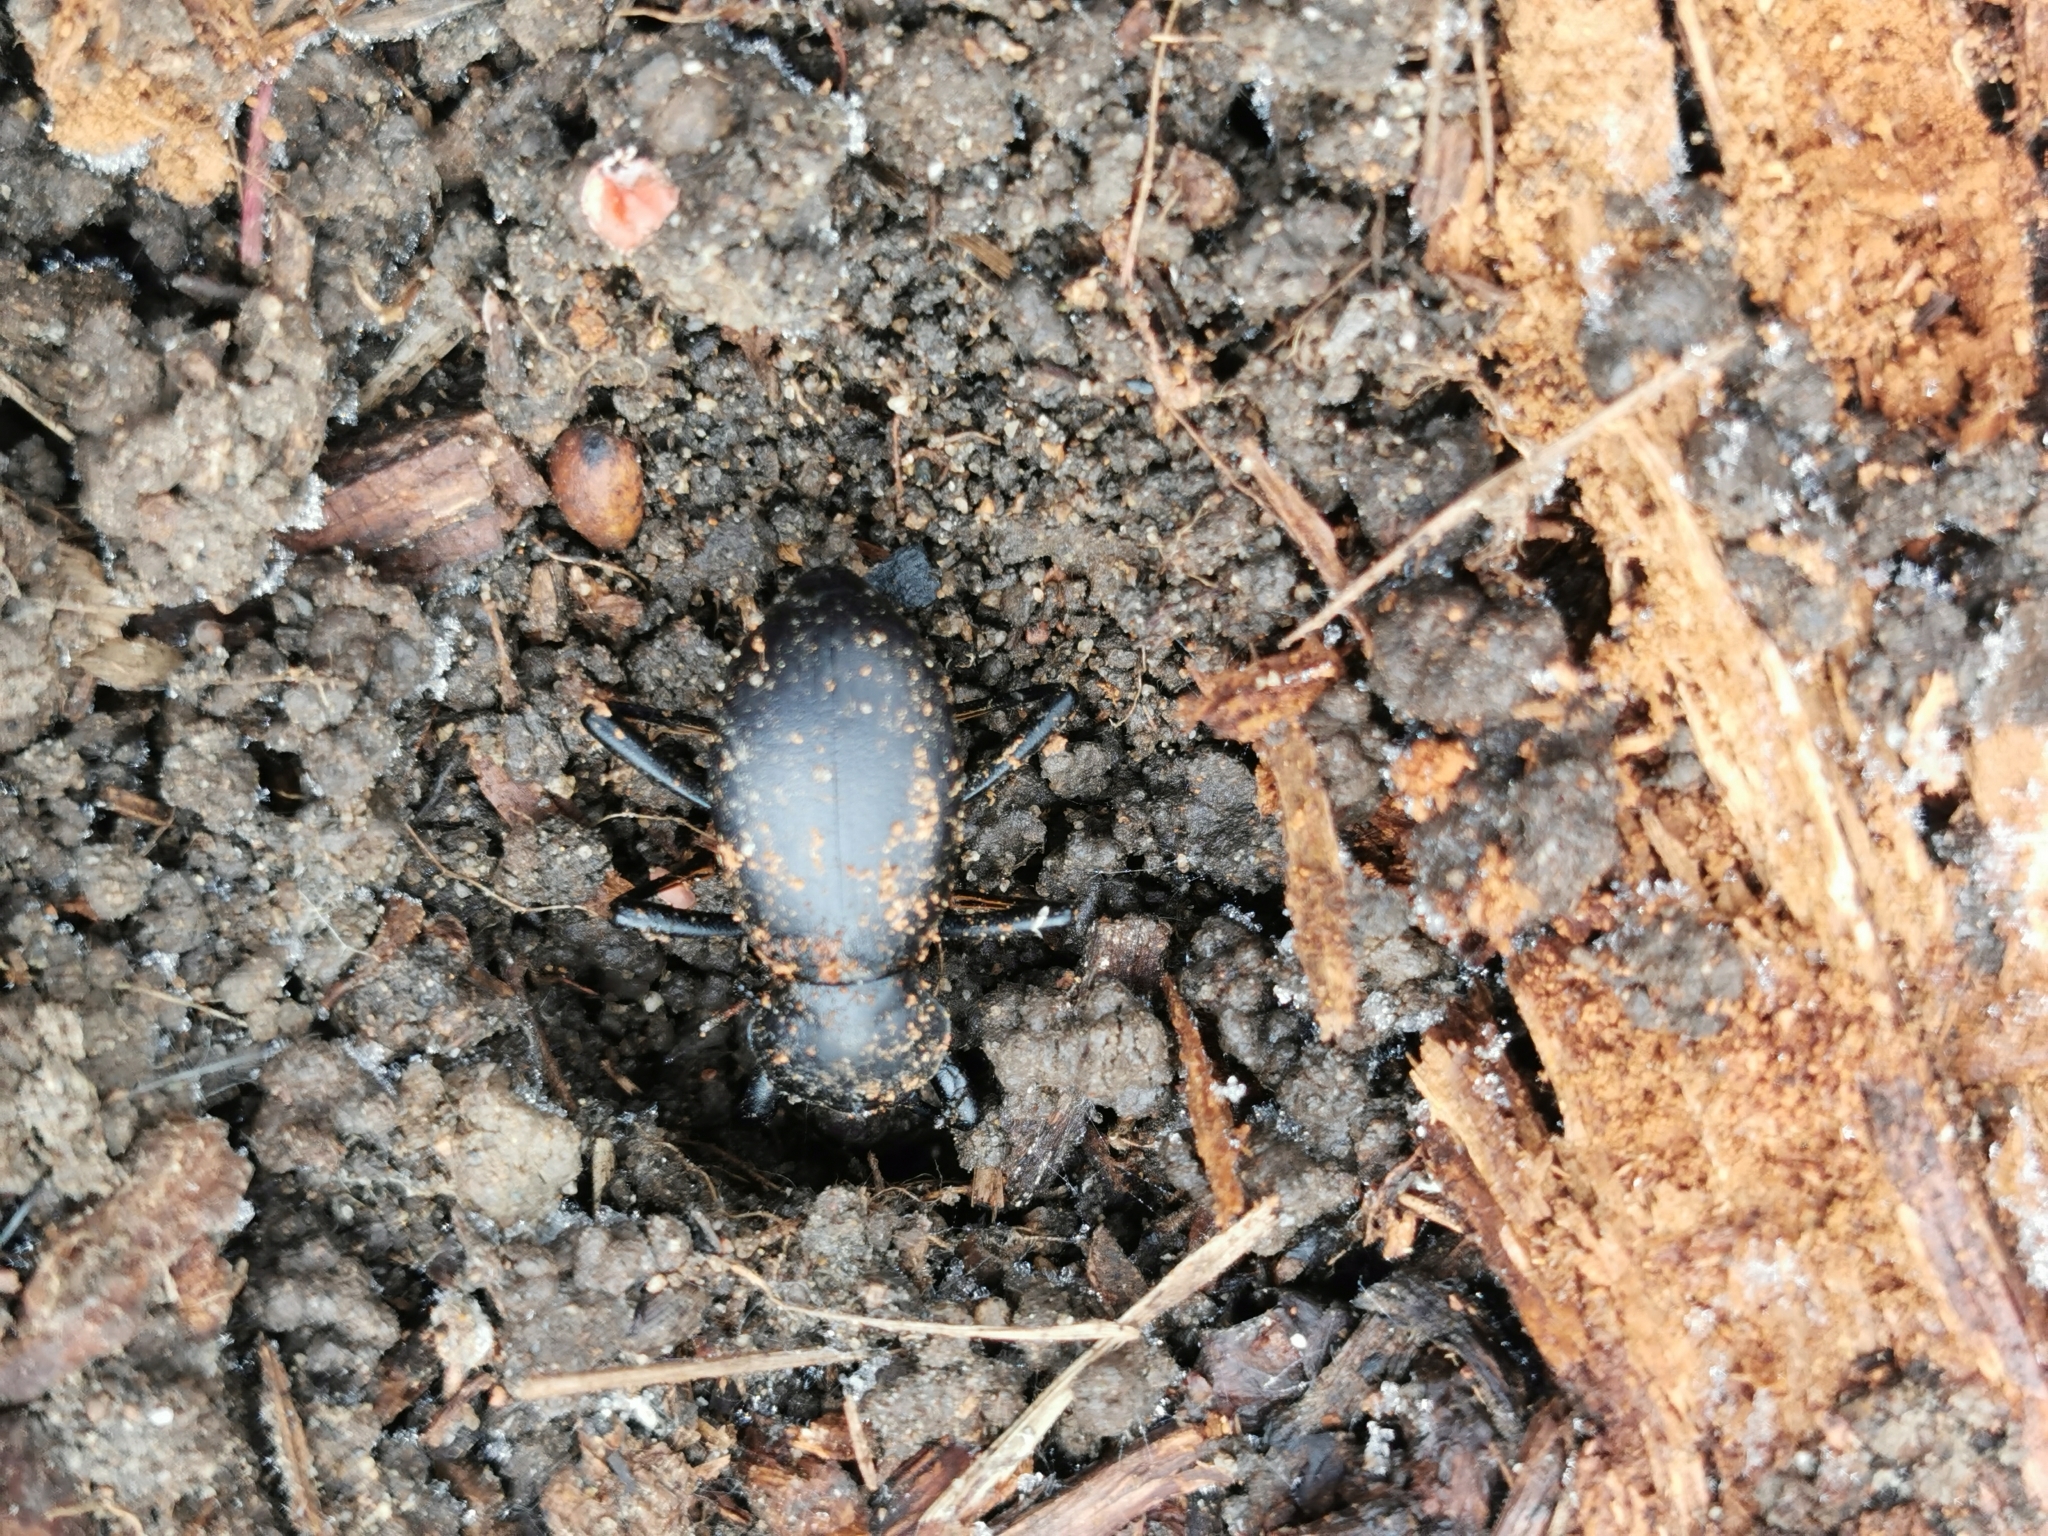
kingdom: Animalia
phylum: Arthropoda
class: Insecta
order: Coleoptera
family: Tenebrionidae
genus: Coelocnemis
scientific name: Coelocnemis dilaticollis
